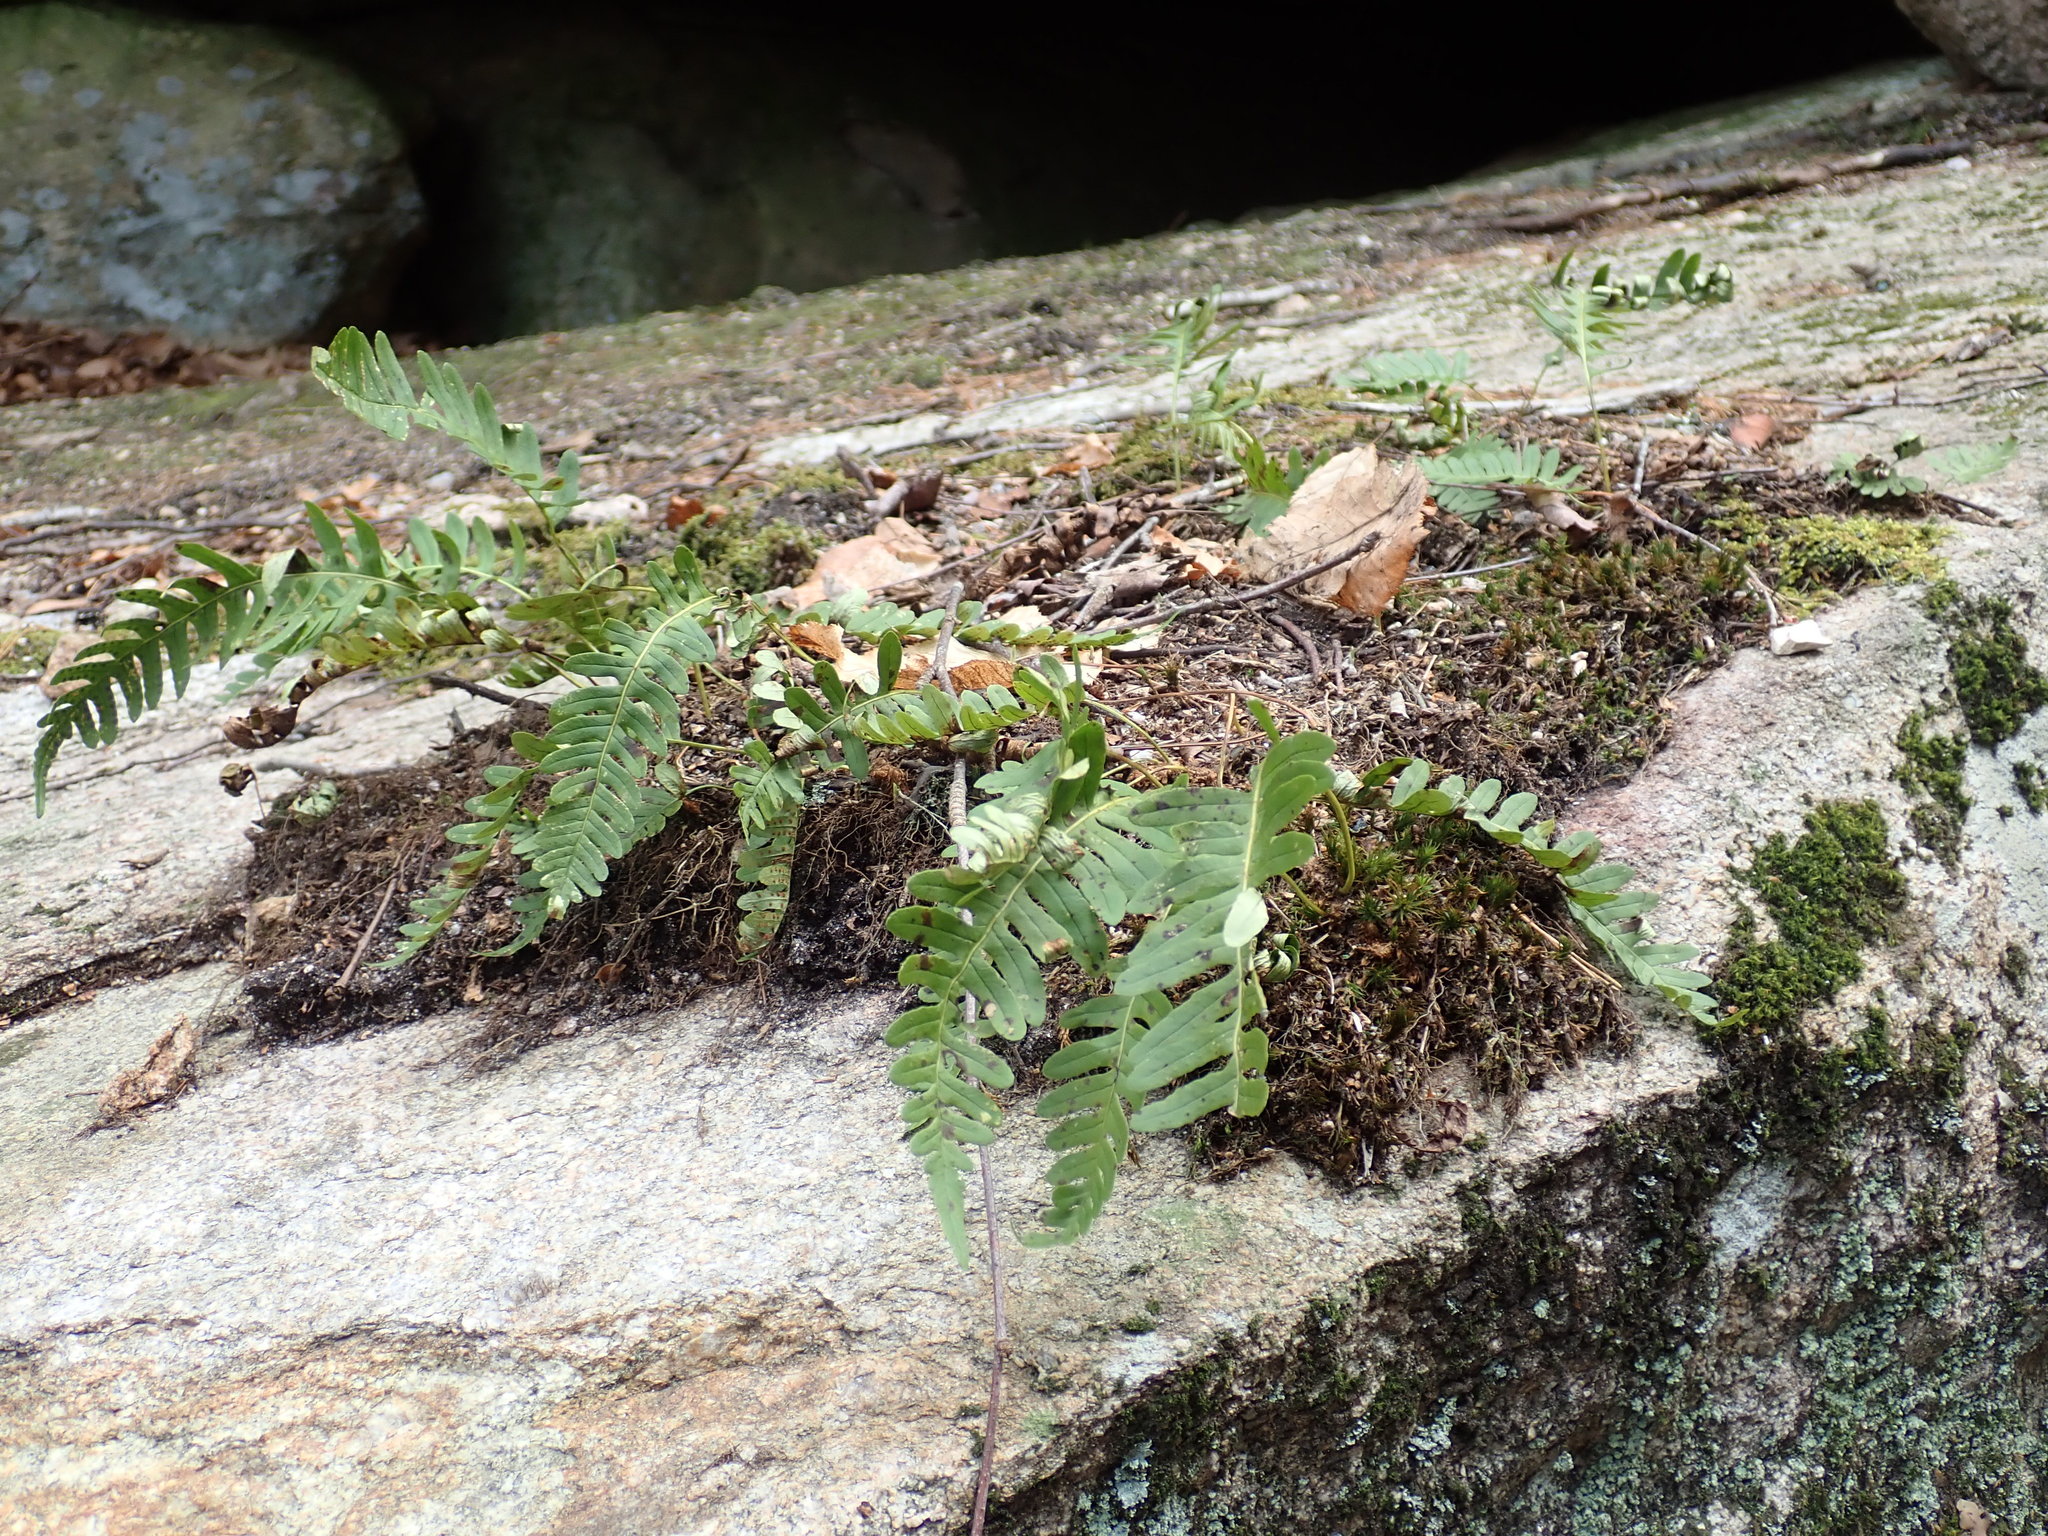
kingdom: Plantae
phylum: Tracheophyta
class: Polypodiopsida
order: Polypodiales
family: Polypodiaceae
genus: Polypodium
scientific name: Polypodium
